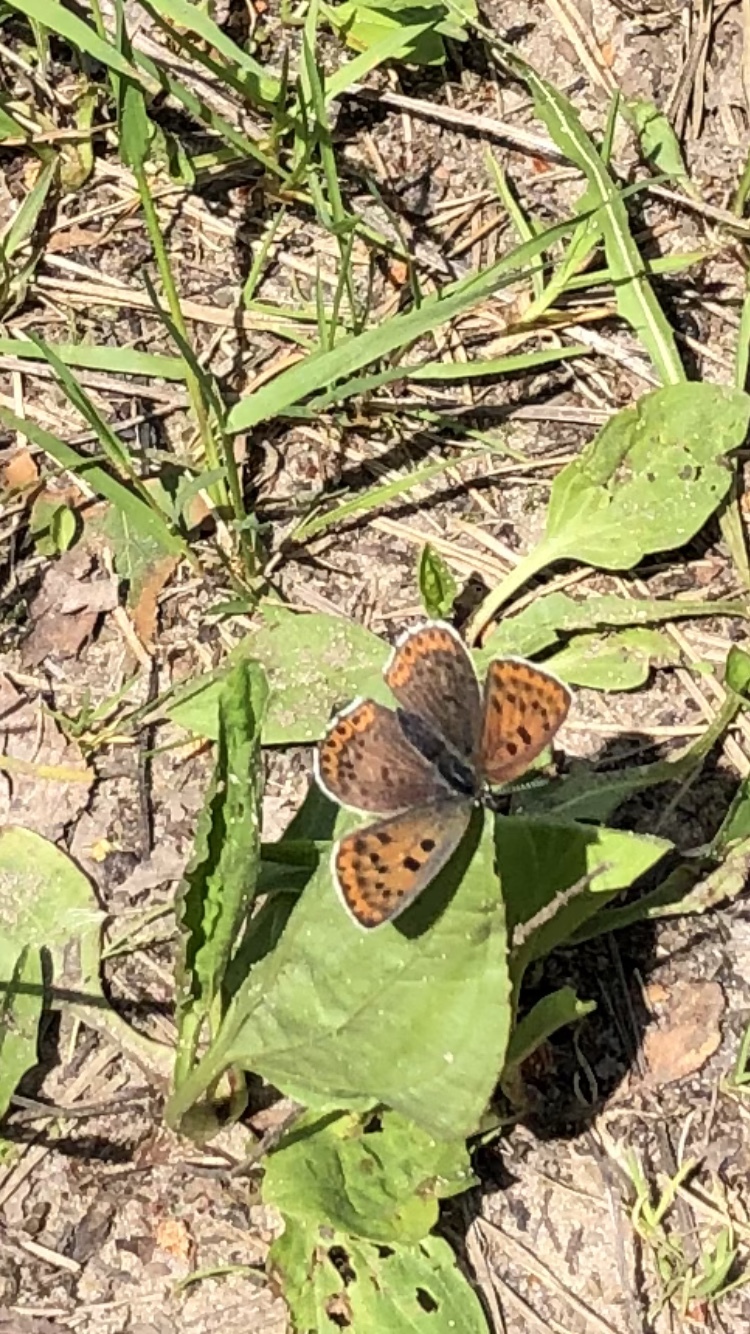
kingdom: Animalia
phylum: Arthropoda
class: Insecta
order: Lepidoptera
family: Lycaenidae
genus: Loweia
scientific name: Loweia tityrus
